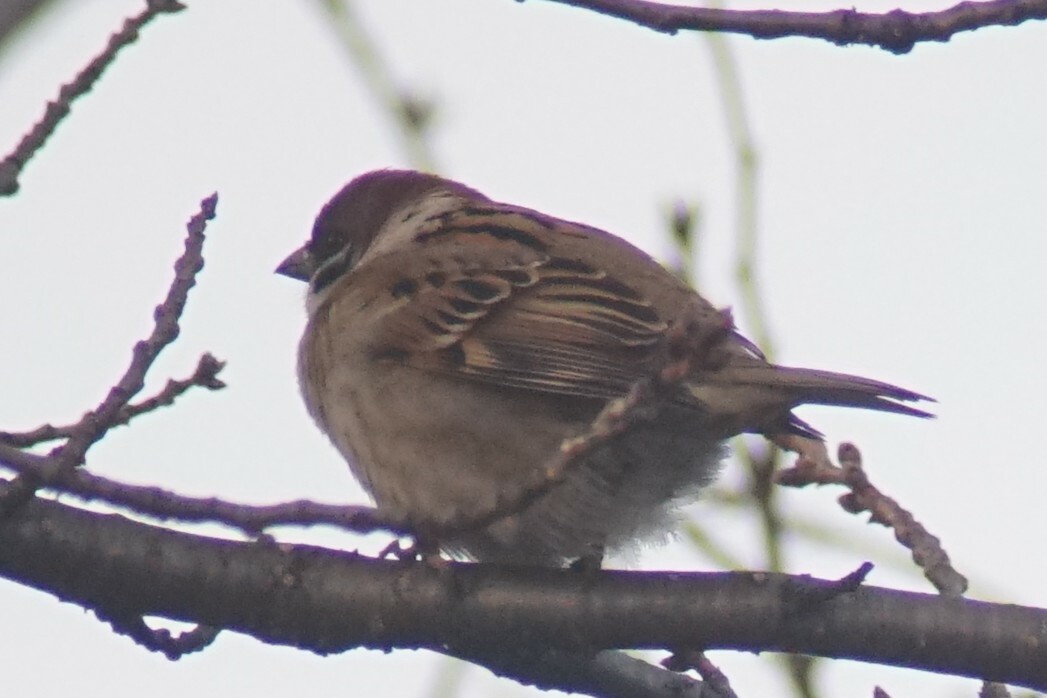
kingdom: Animalia
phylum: Chordata
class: Aves
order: Passeriformes
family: Passeridae
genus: Passer
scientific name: Passer montanus
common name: Eurasian tree sparrow
